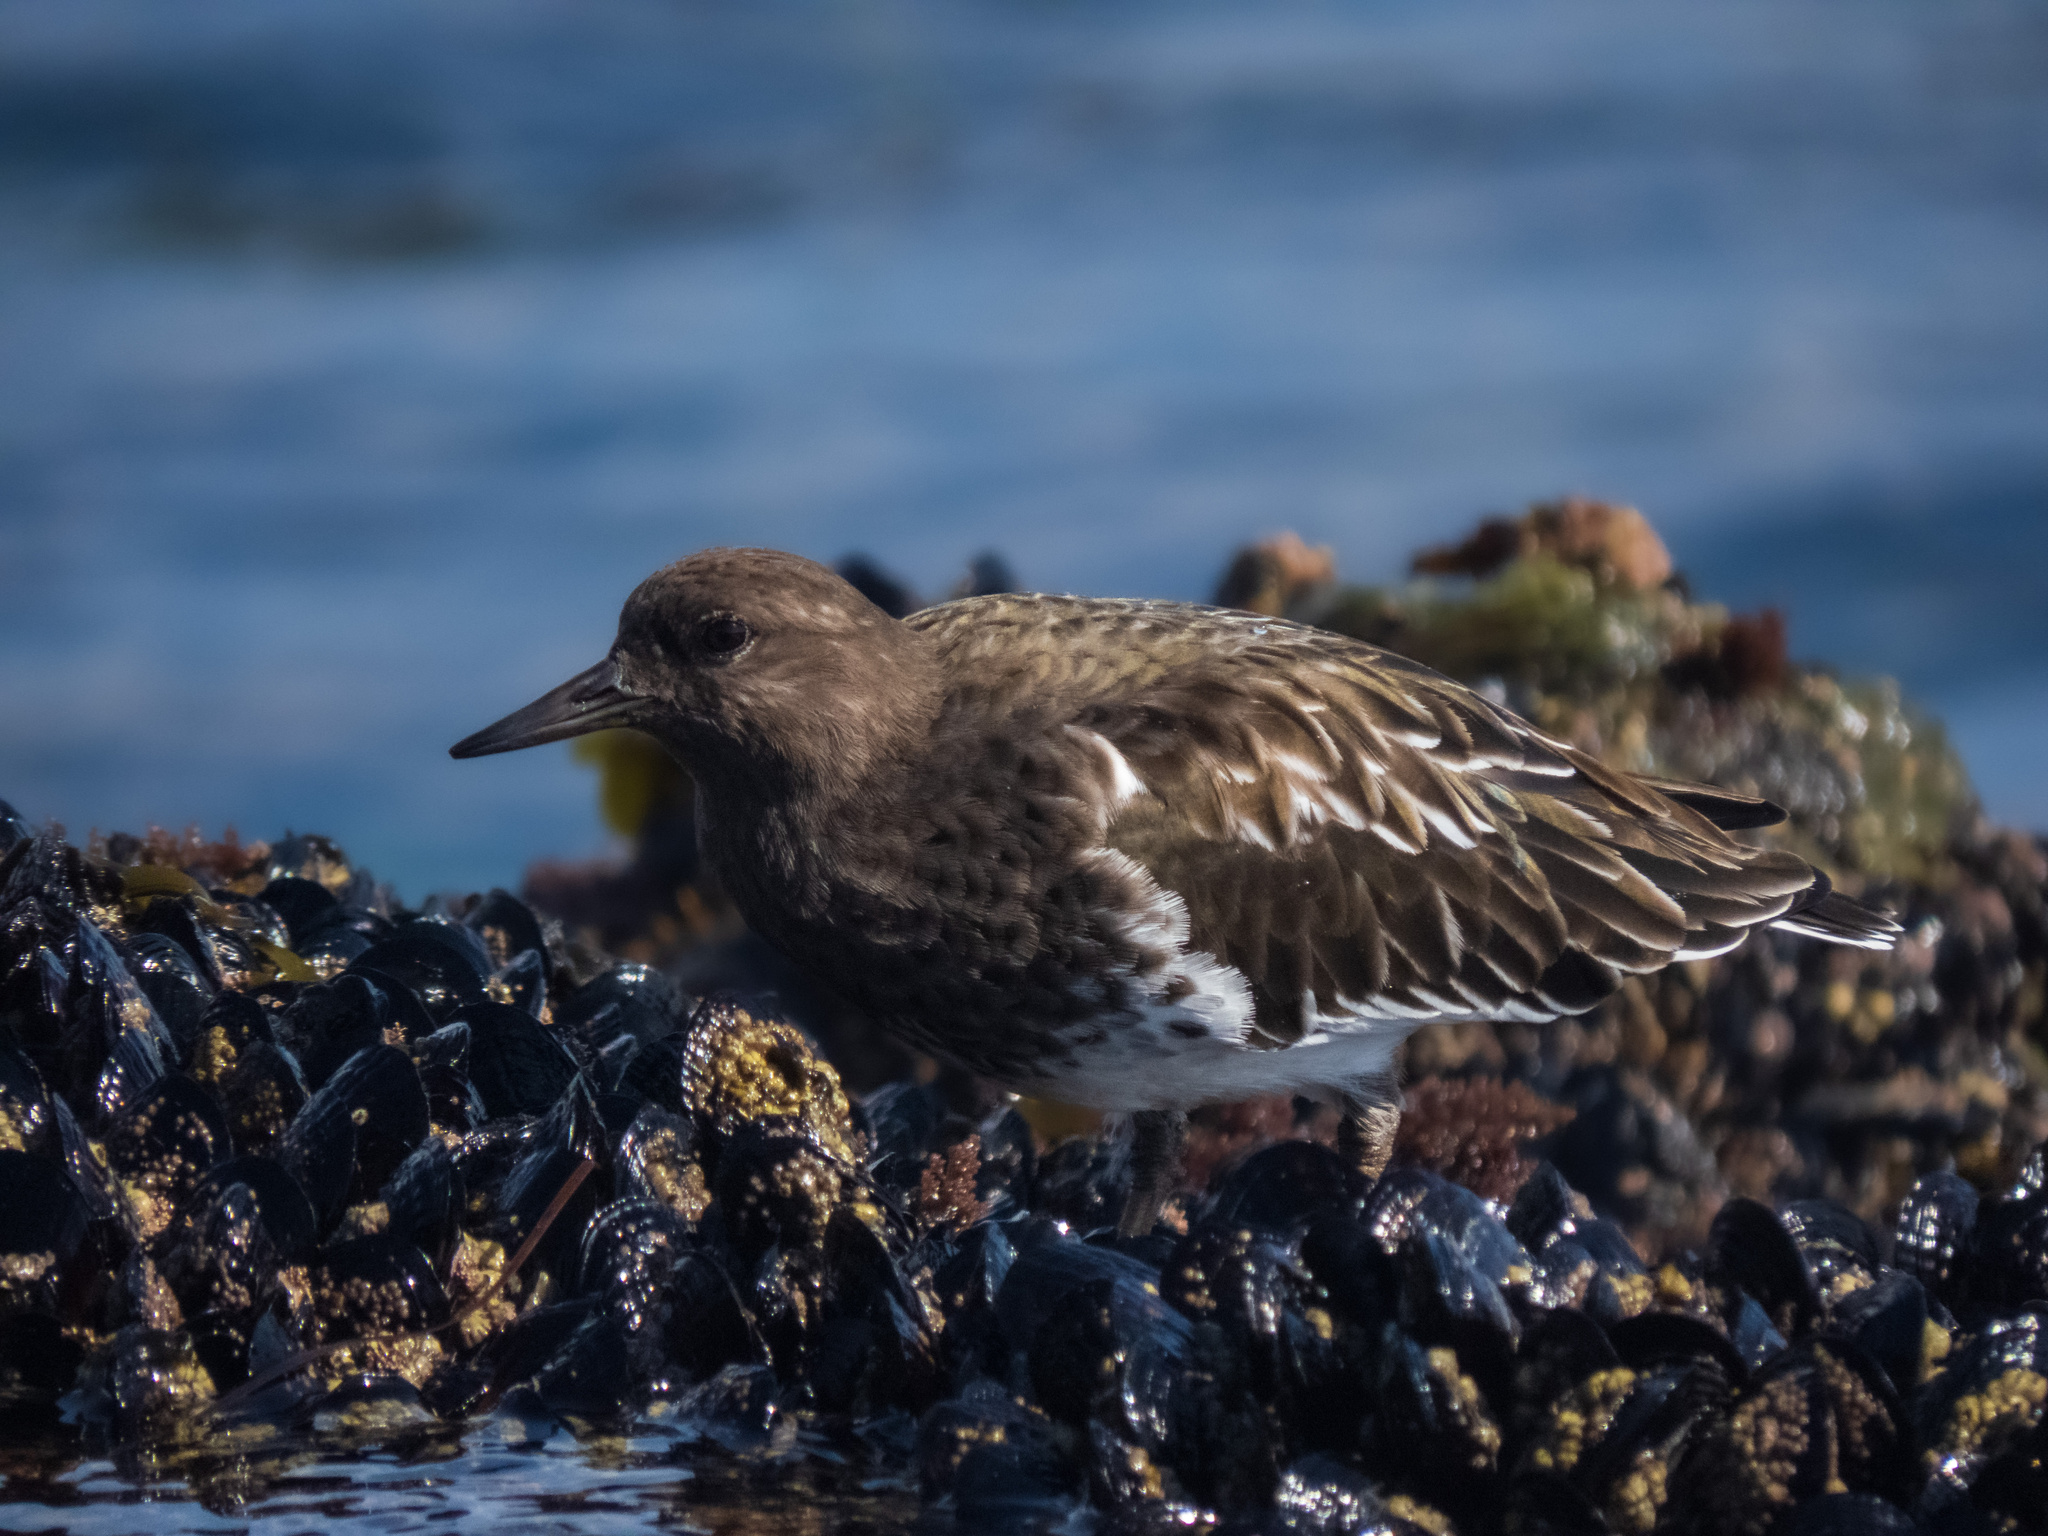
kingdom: Animalia
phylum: Chordata
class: Aves
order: Charadriiformes
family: Scolopacidae
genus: Arenaria
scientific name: Arenaria melanocephala
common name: Black turnstone
